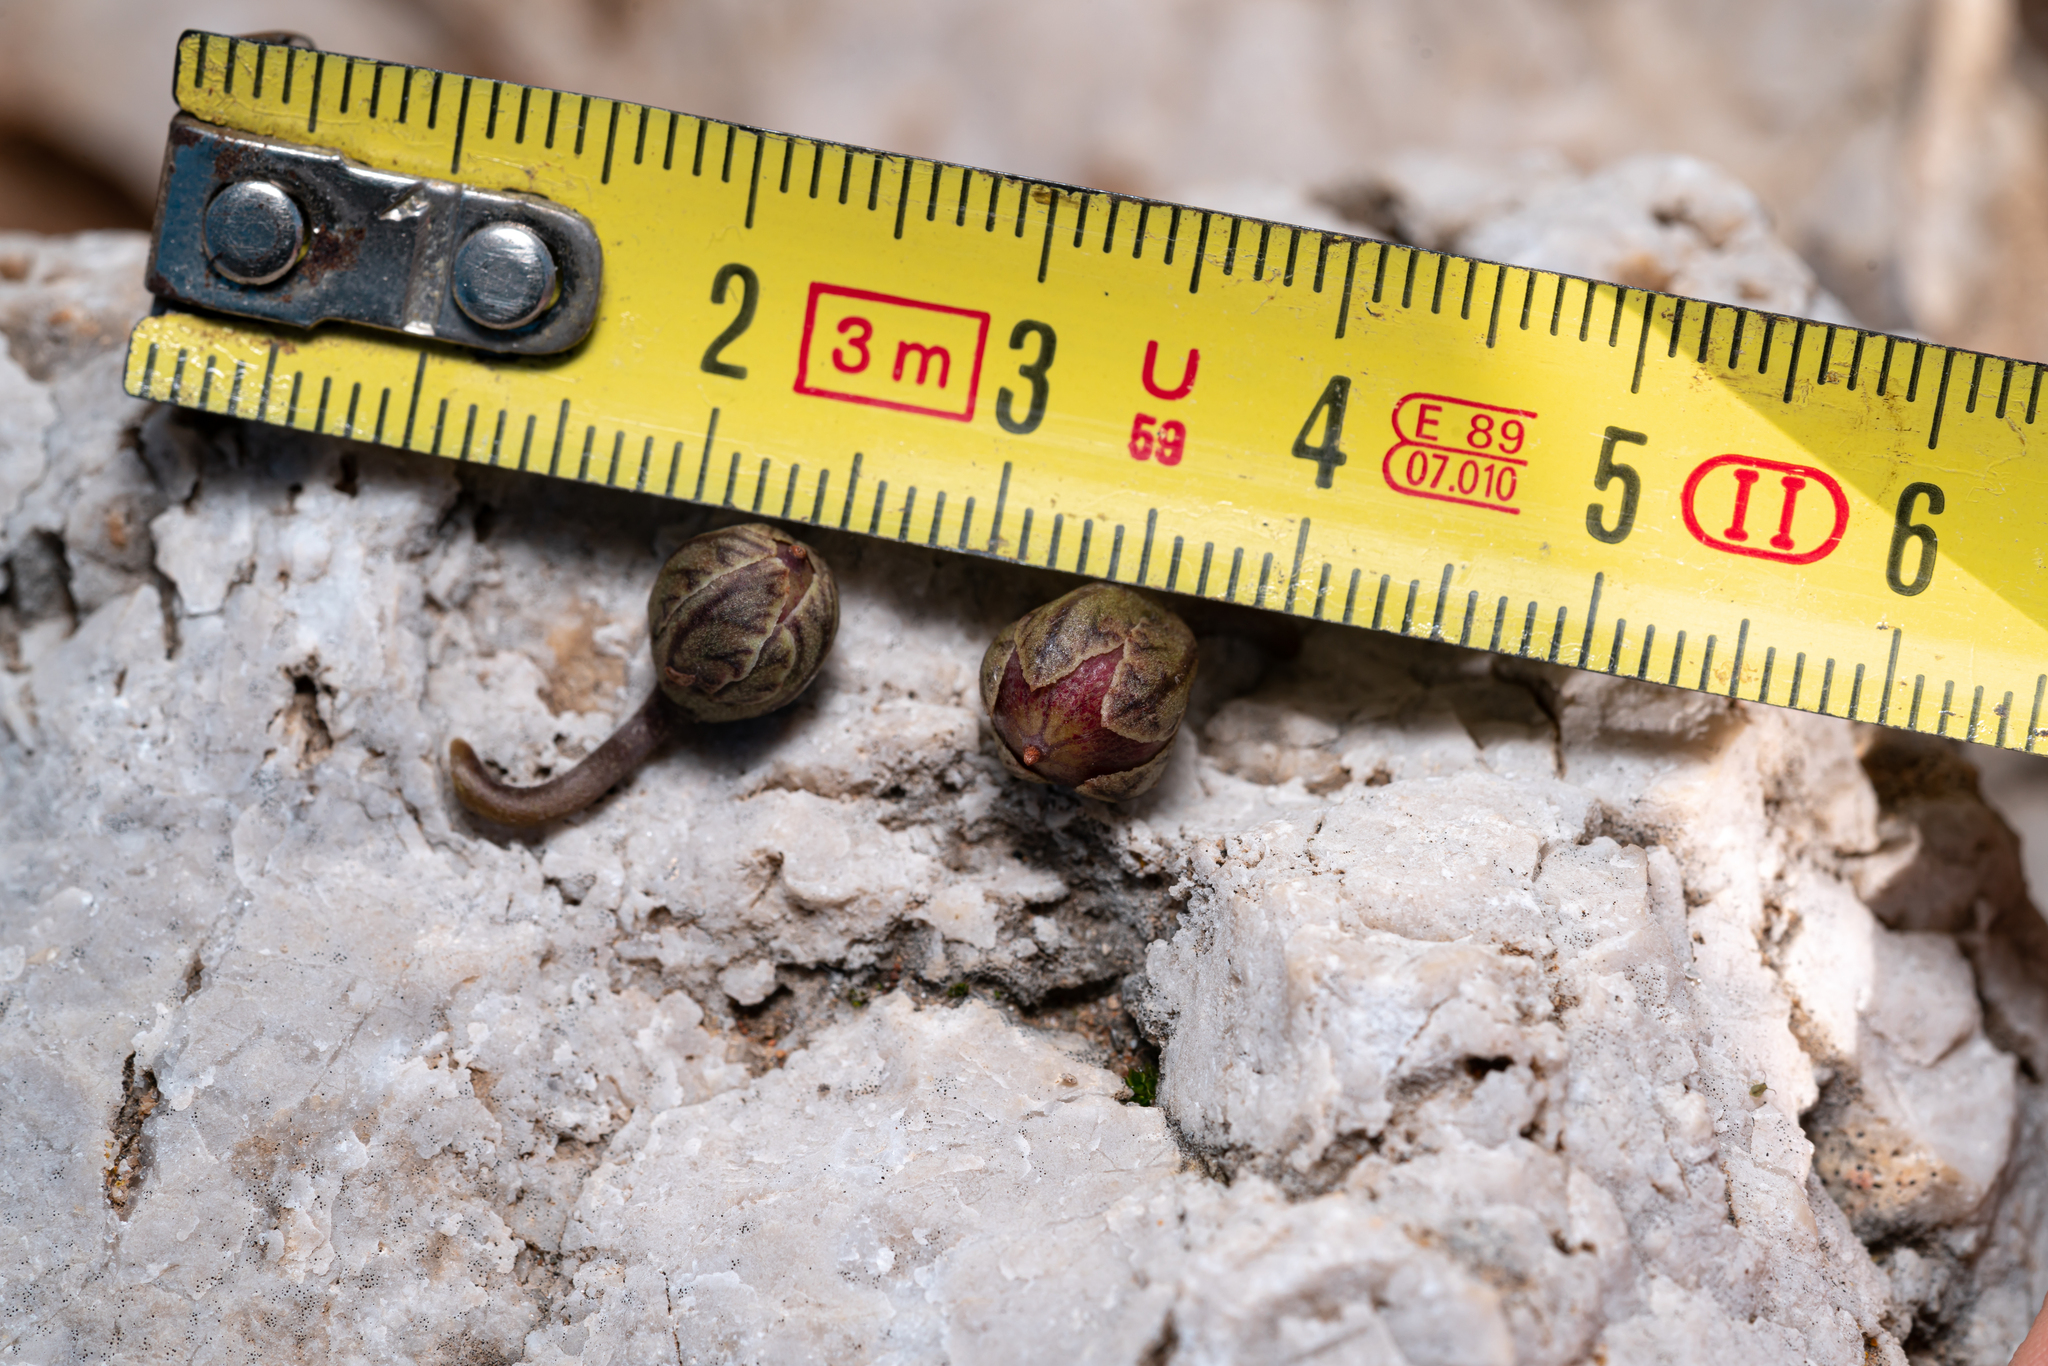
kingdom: Plantae
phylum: Tracheophyta
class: Magnoliopsida
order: Ericales
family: Primulaceae
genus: Cyclamen
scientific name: Cyclamen graecum
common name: Greek cyclamen
